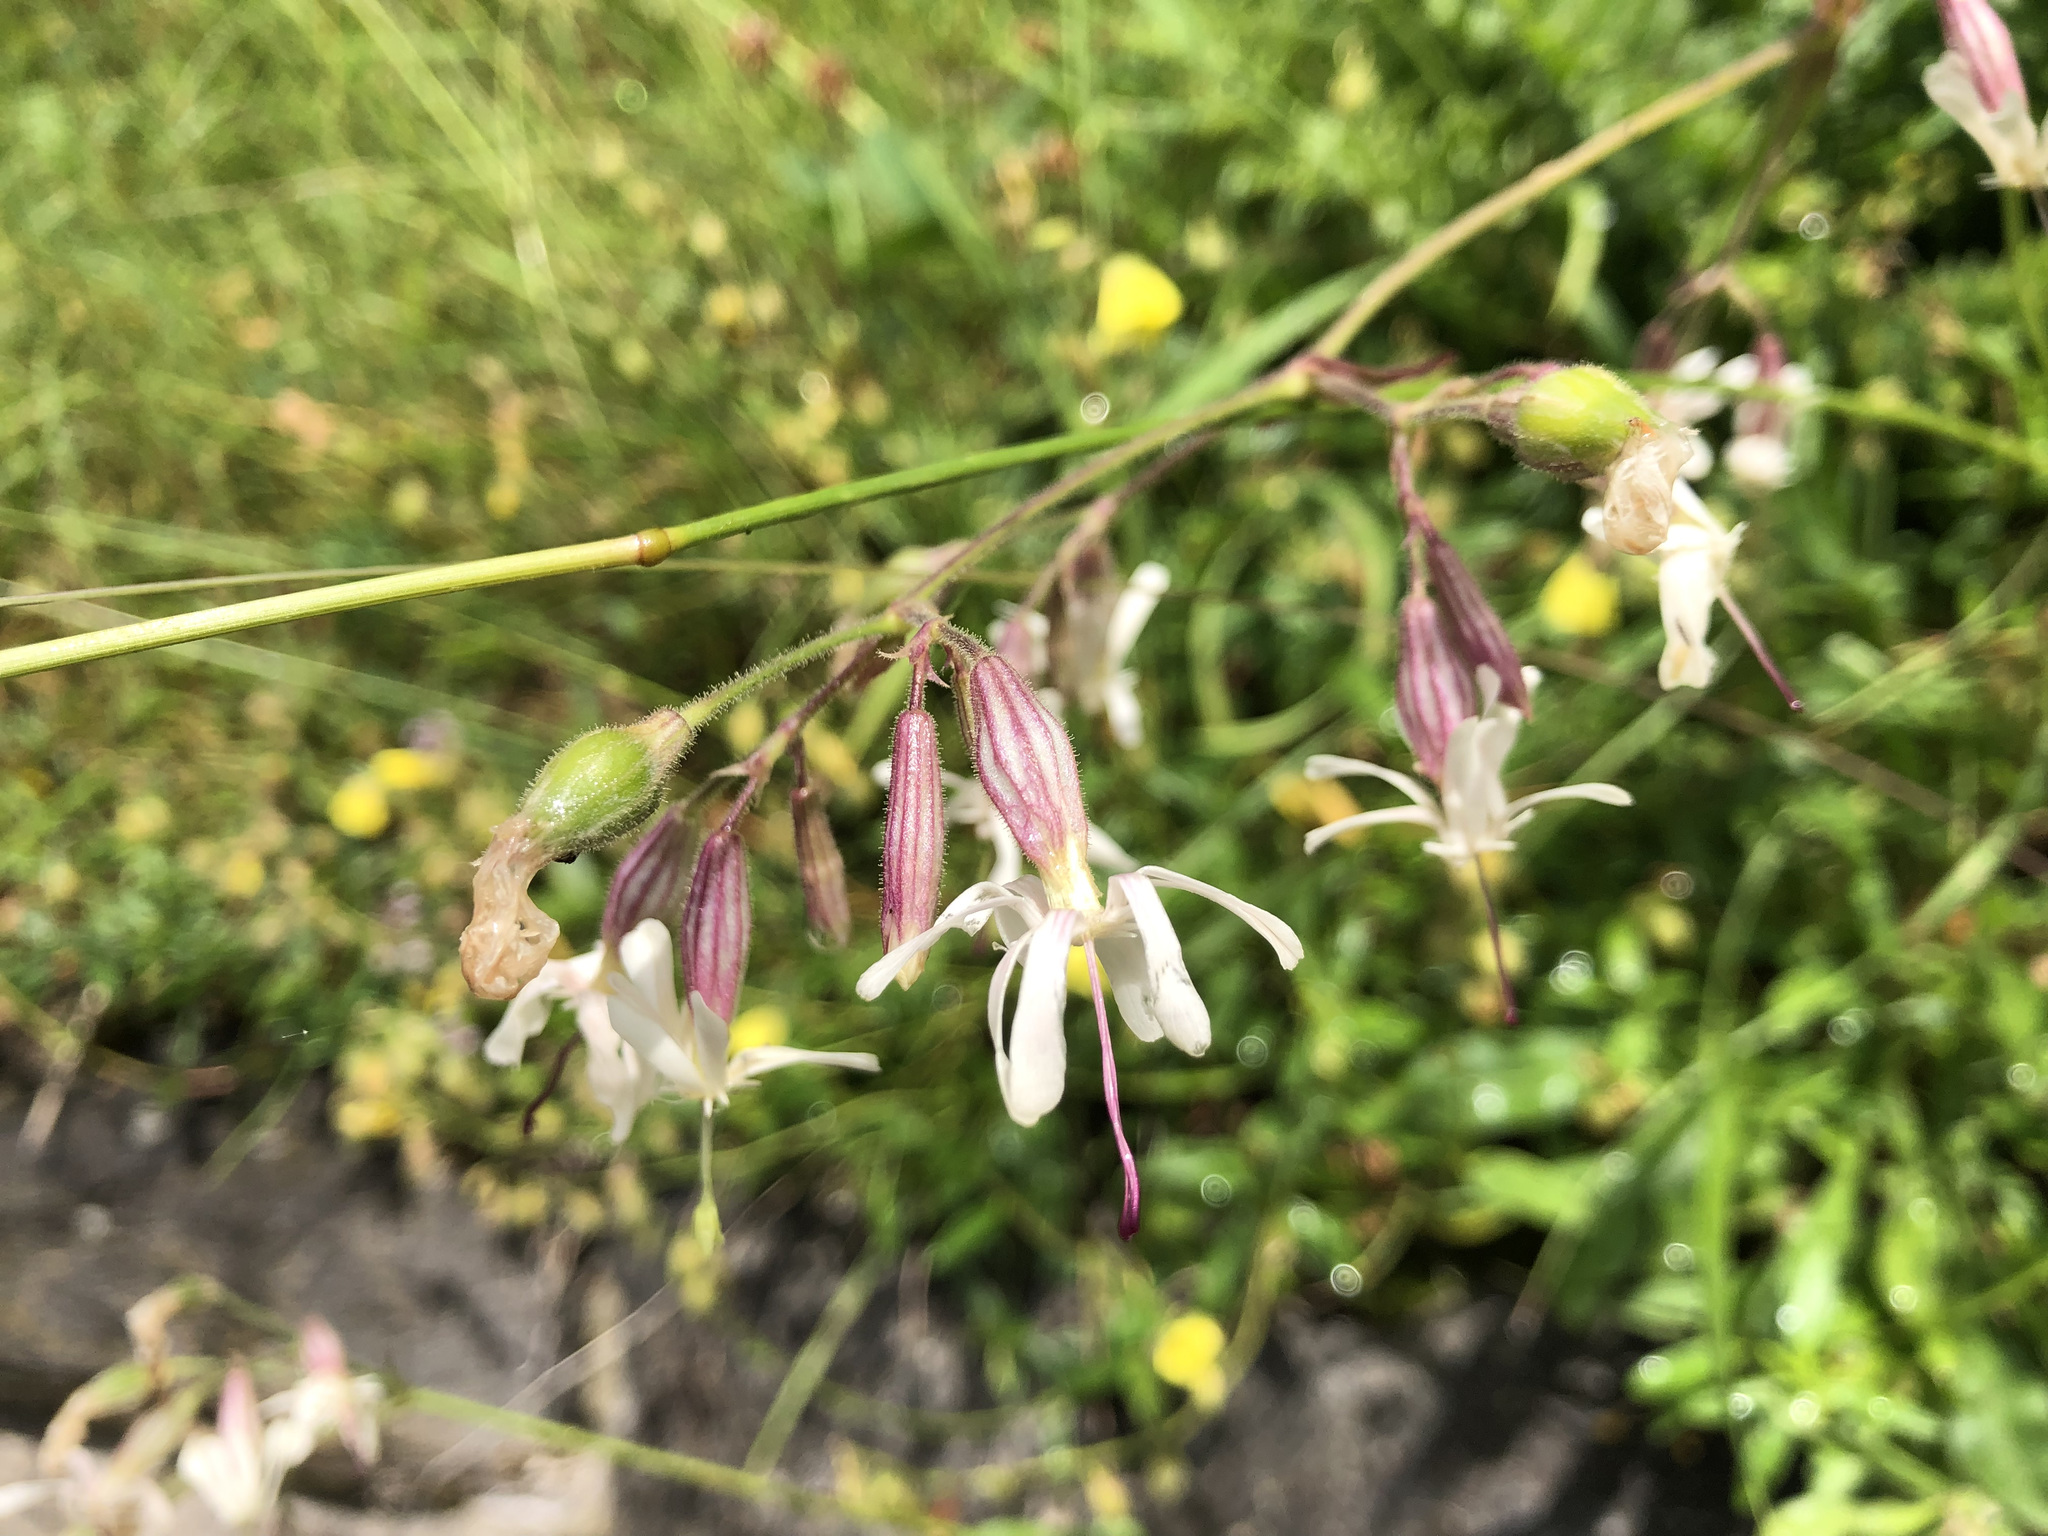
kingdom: Plantae
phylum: Tracheophyta
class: Magnoliopsida
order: Caryophyllales
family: Caryophyllaceae
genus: Silene
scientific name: Silene nutans
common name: Nottingham catchfly
